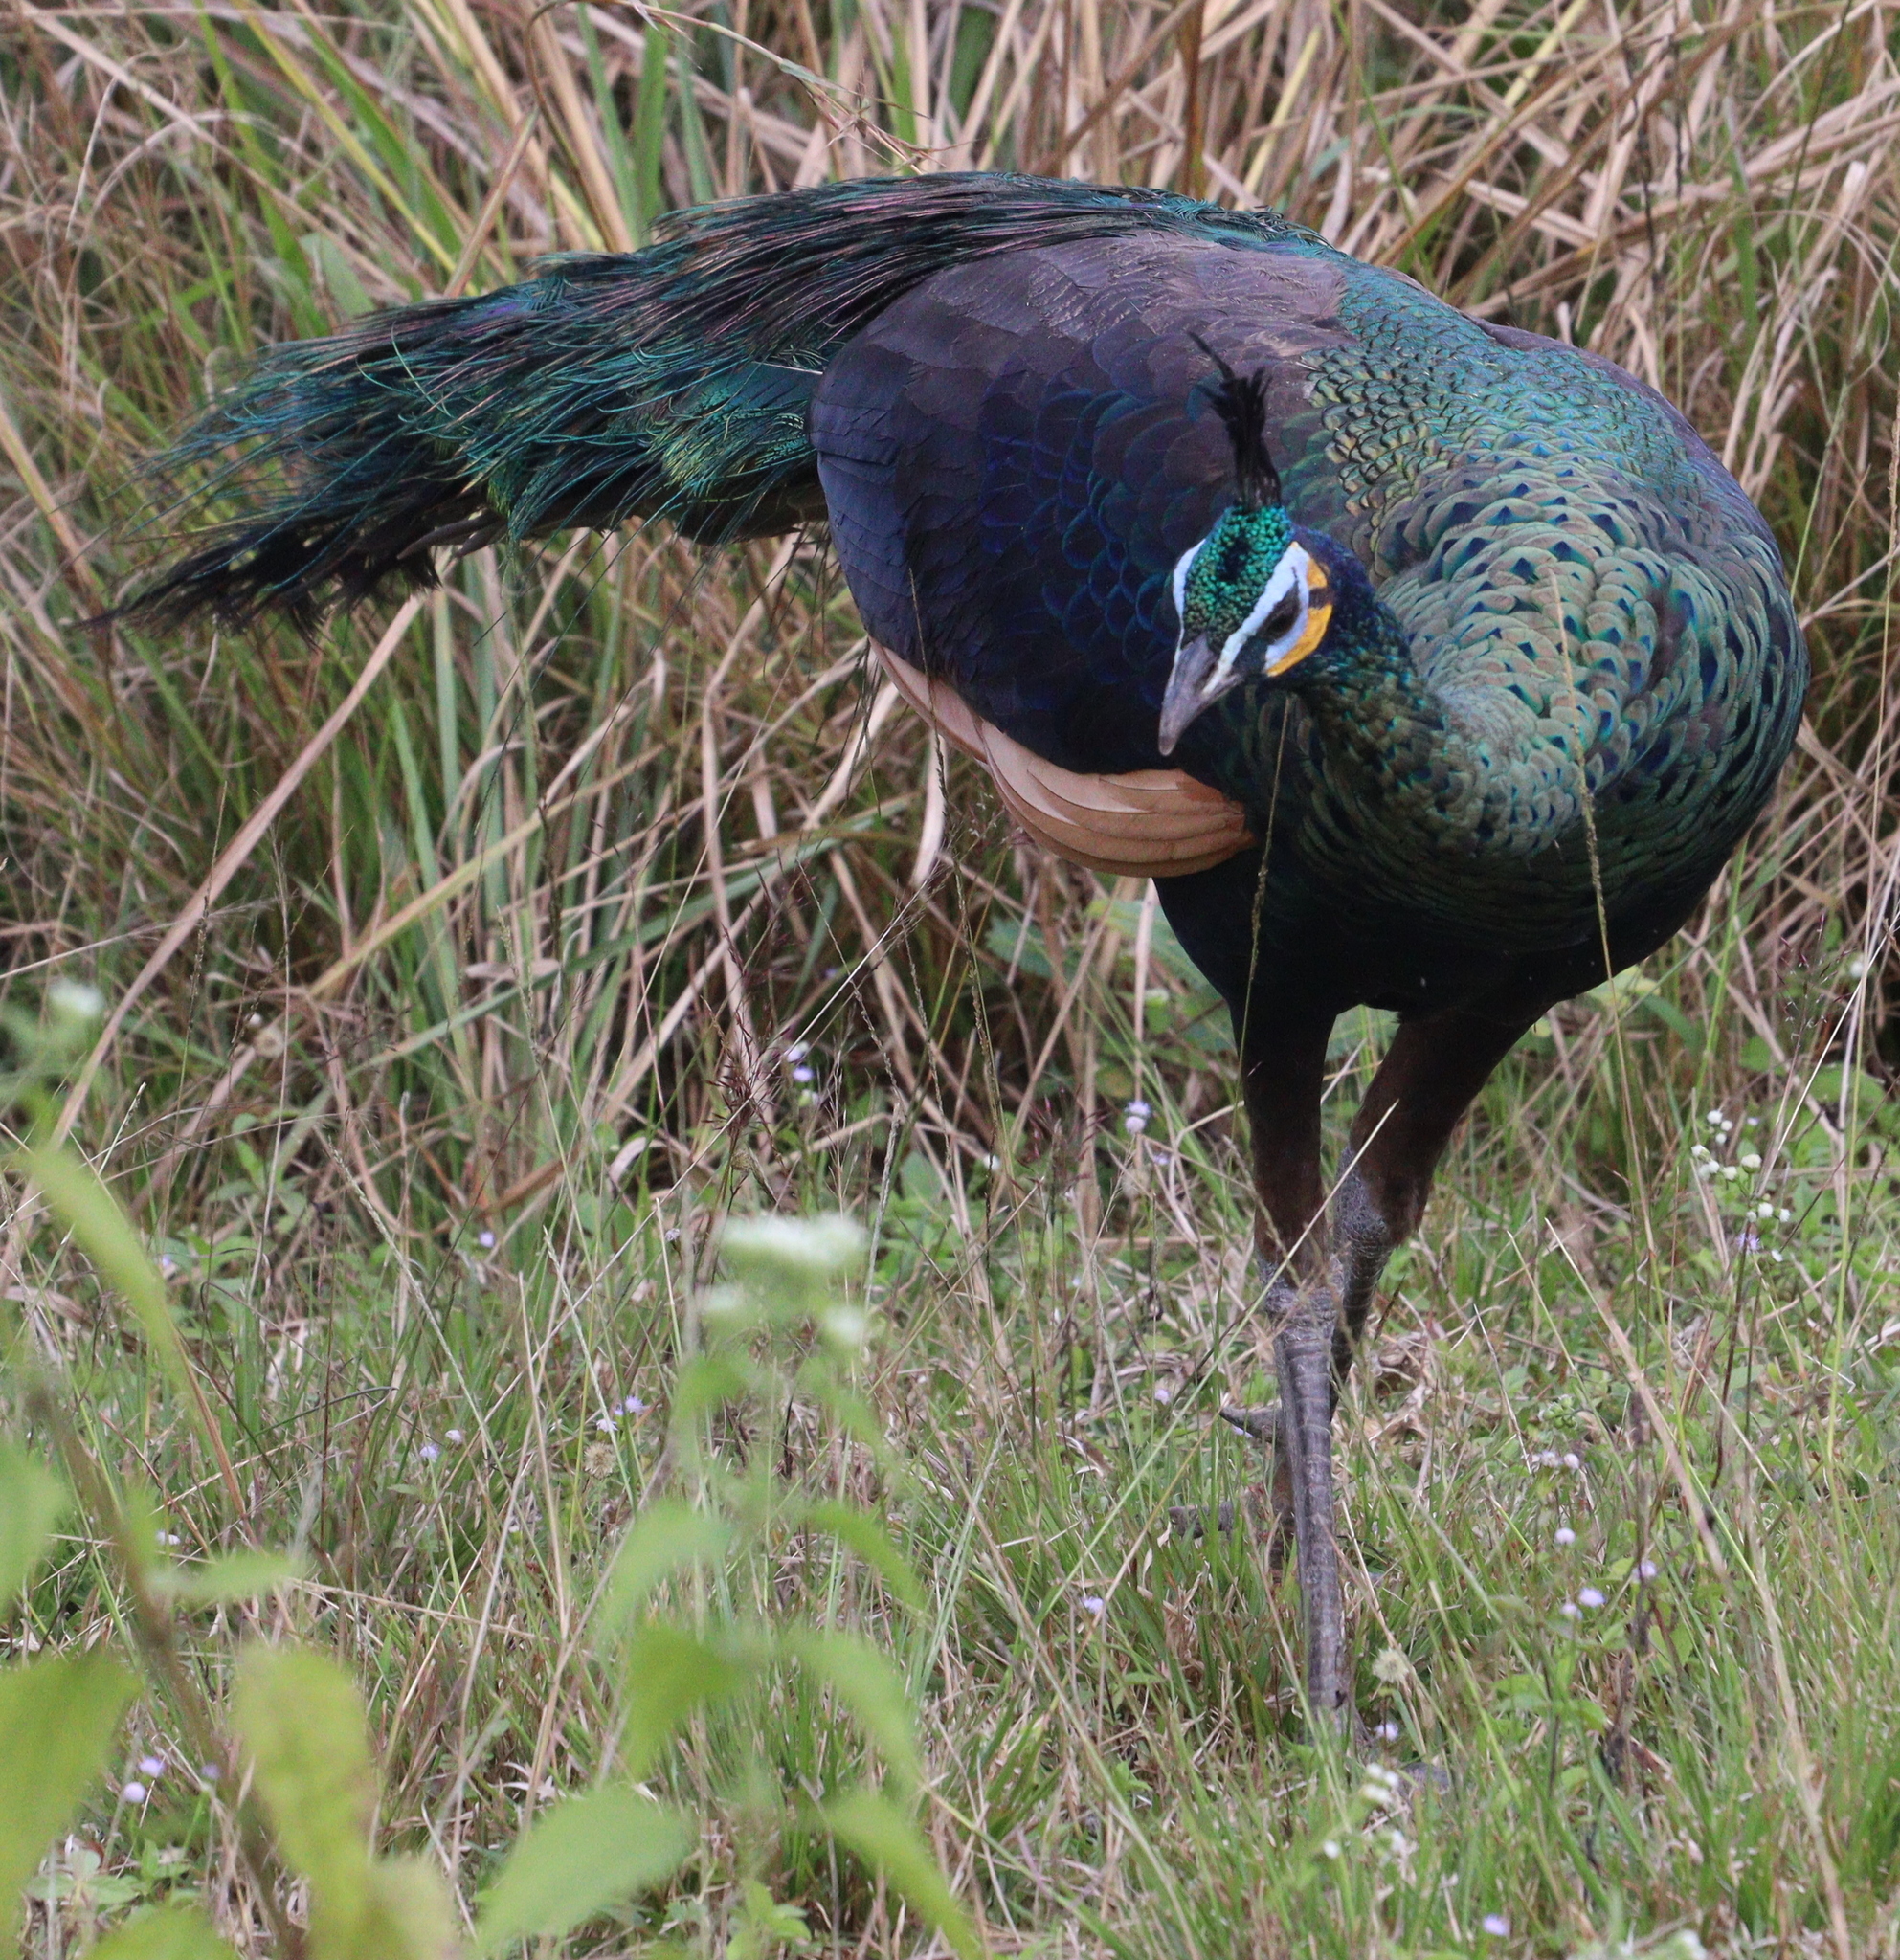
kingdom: Animalia
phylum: Chordata
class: Aves
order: Galliformes
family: Phasianidae
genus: Pavo
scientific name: Pavo muticus
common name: Green peafowl
